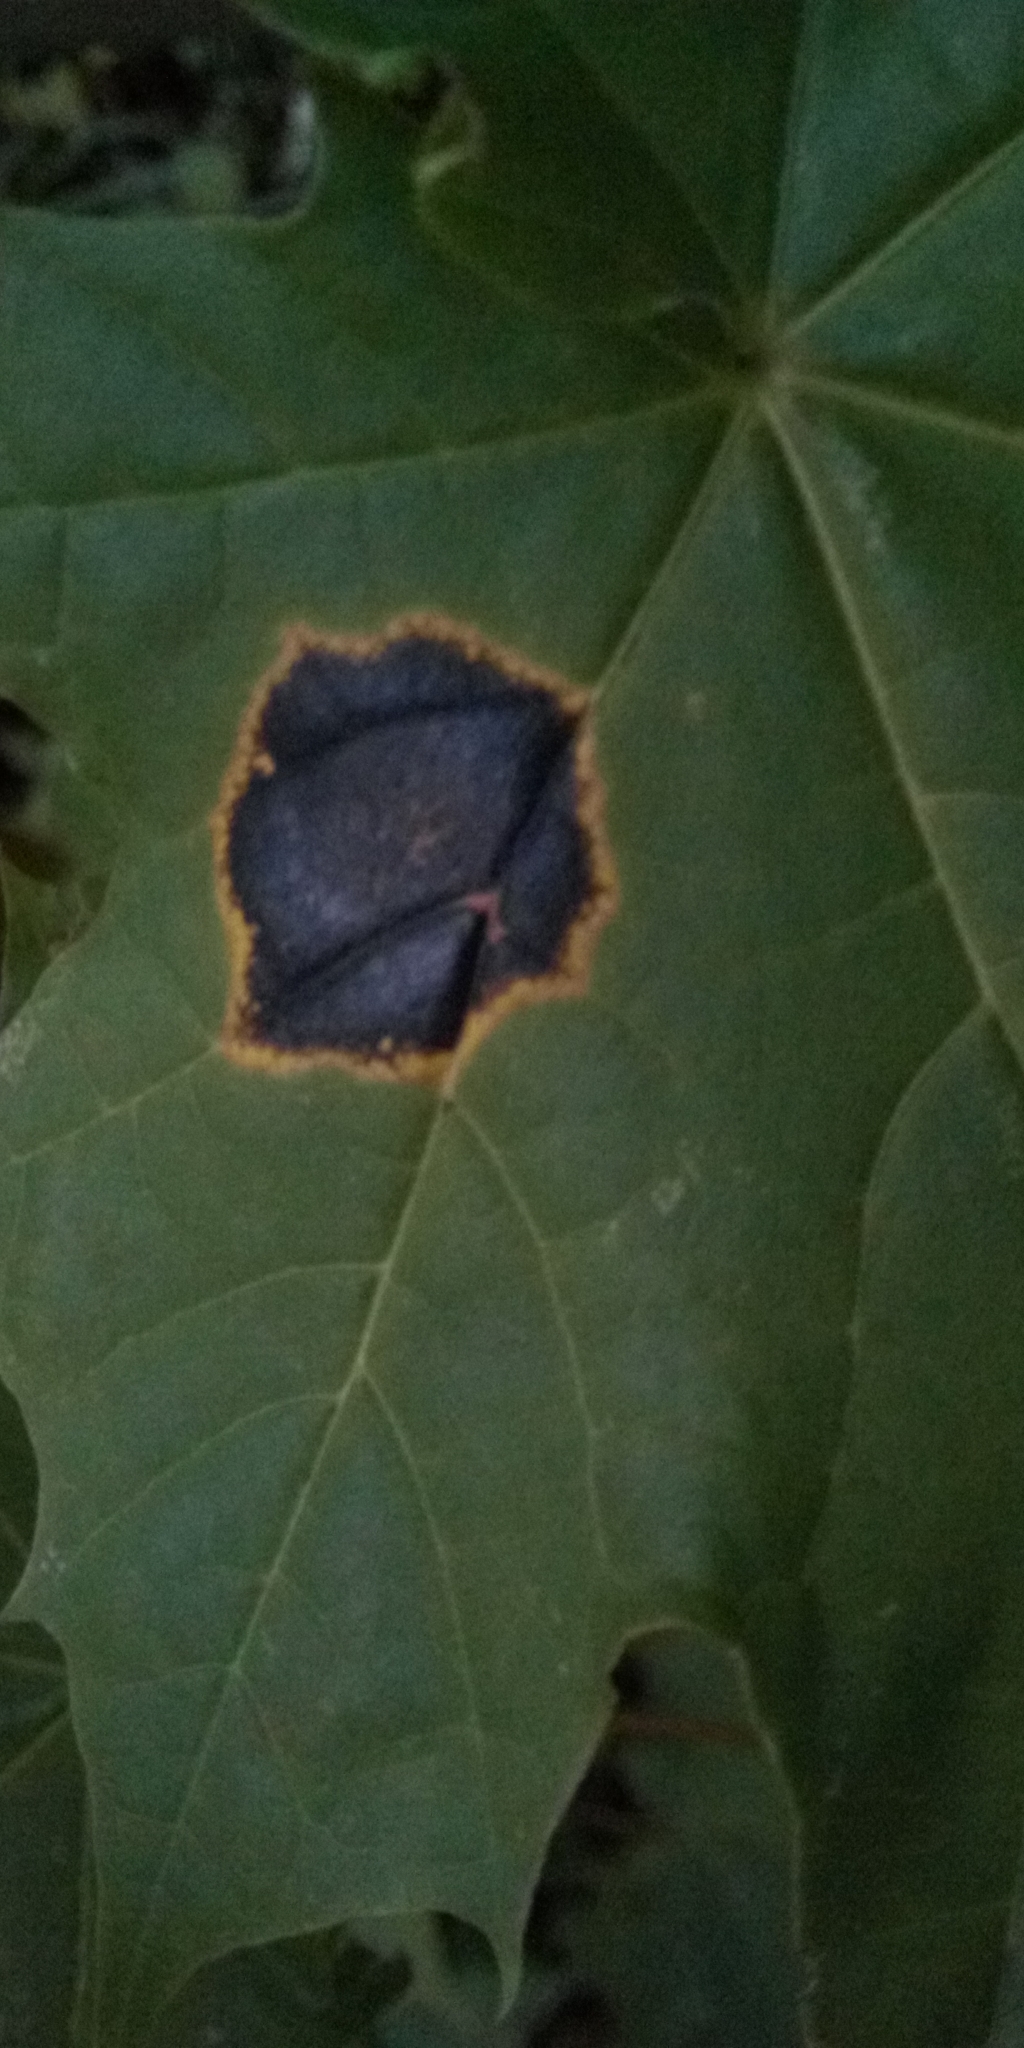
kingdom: Fungi
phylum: Ascomycota
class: Leotiomycetes
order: Rhytismatales
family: Rhytismataceae
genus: Rhytisma
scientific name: Rhytisma acerinum
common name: European tar spot
